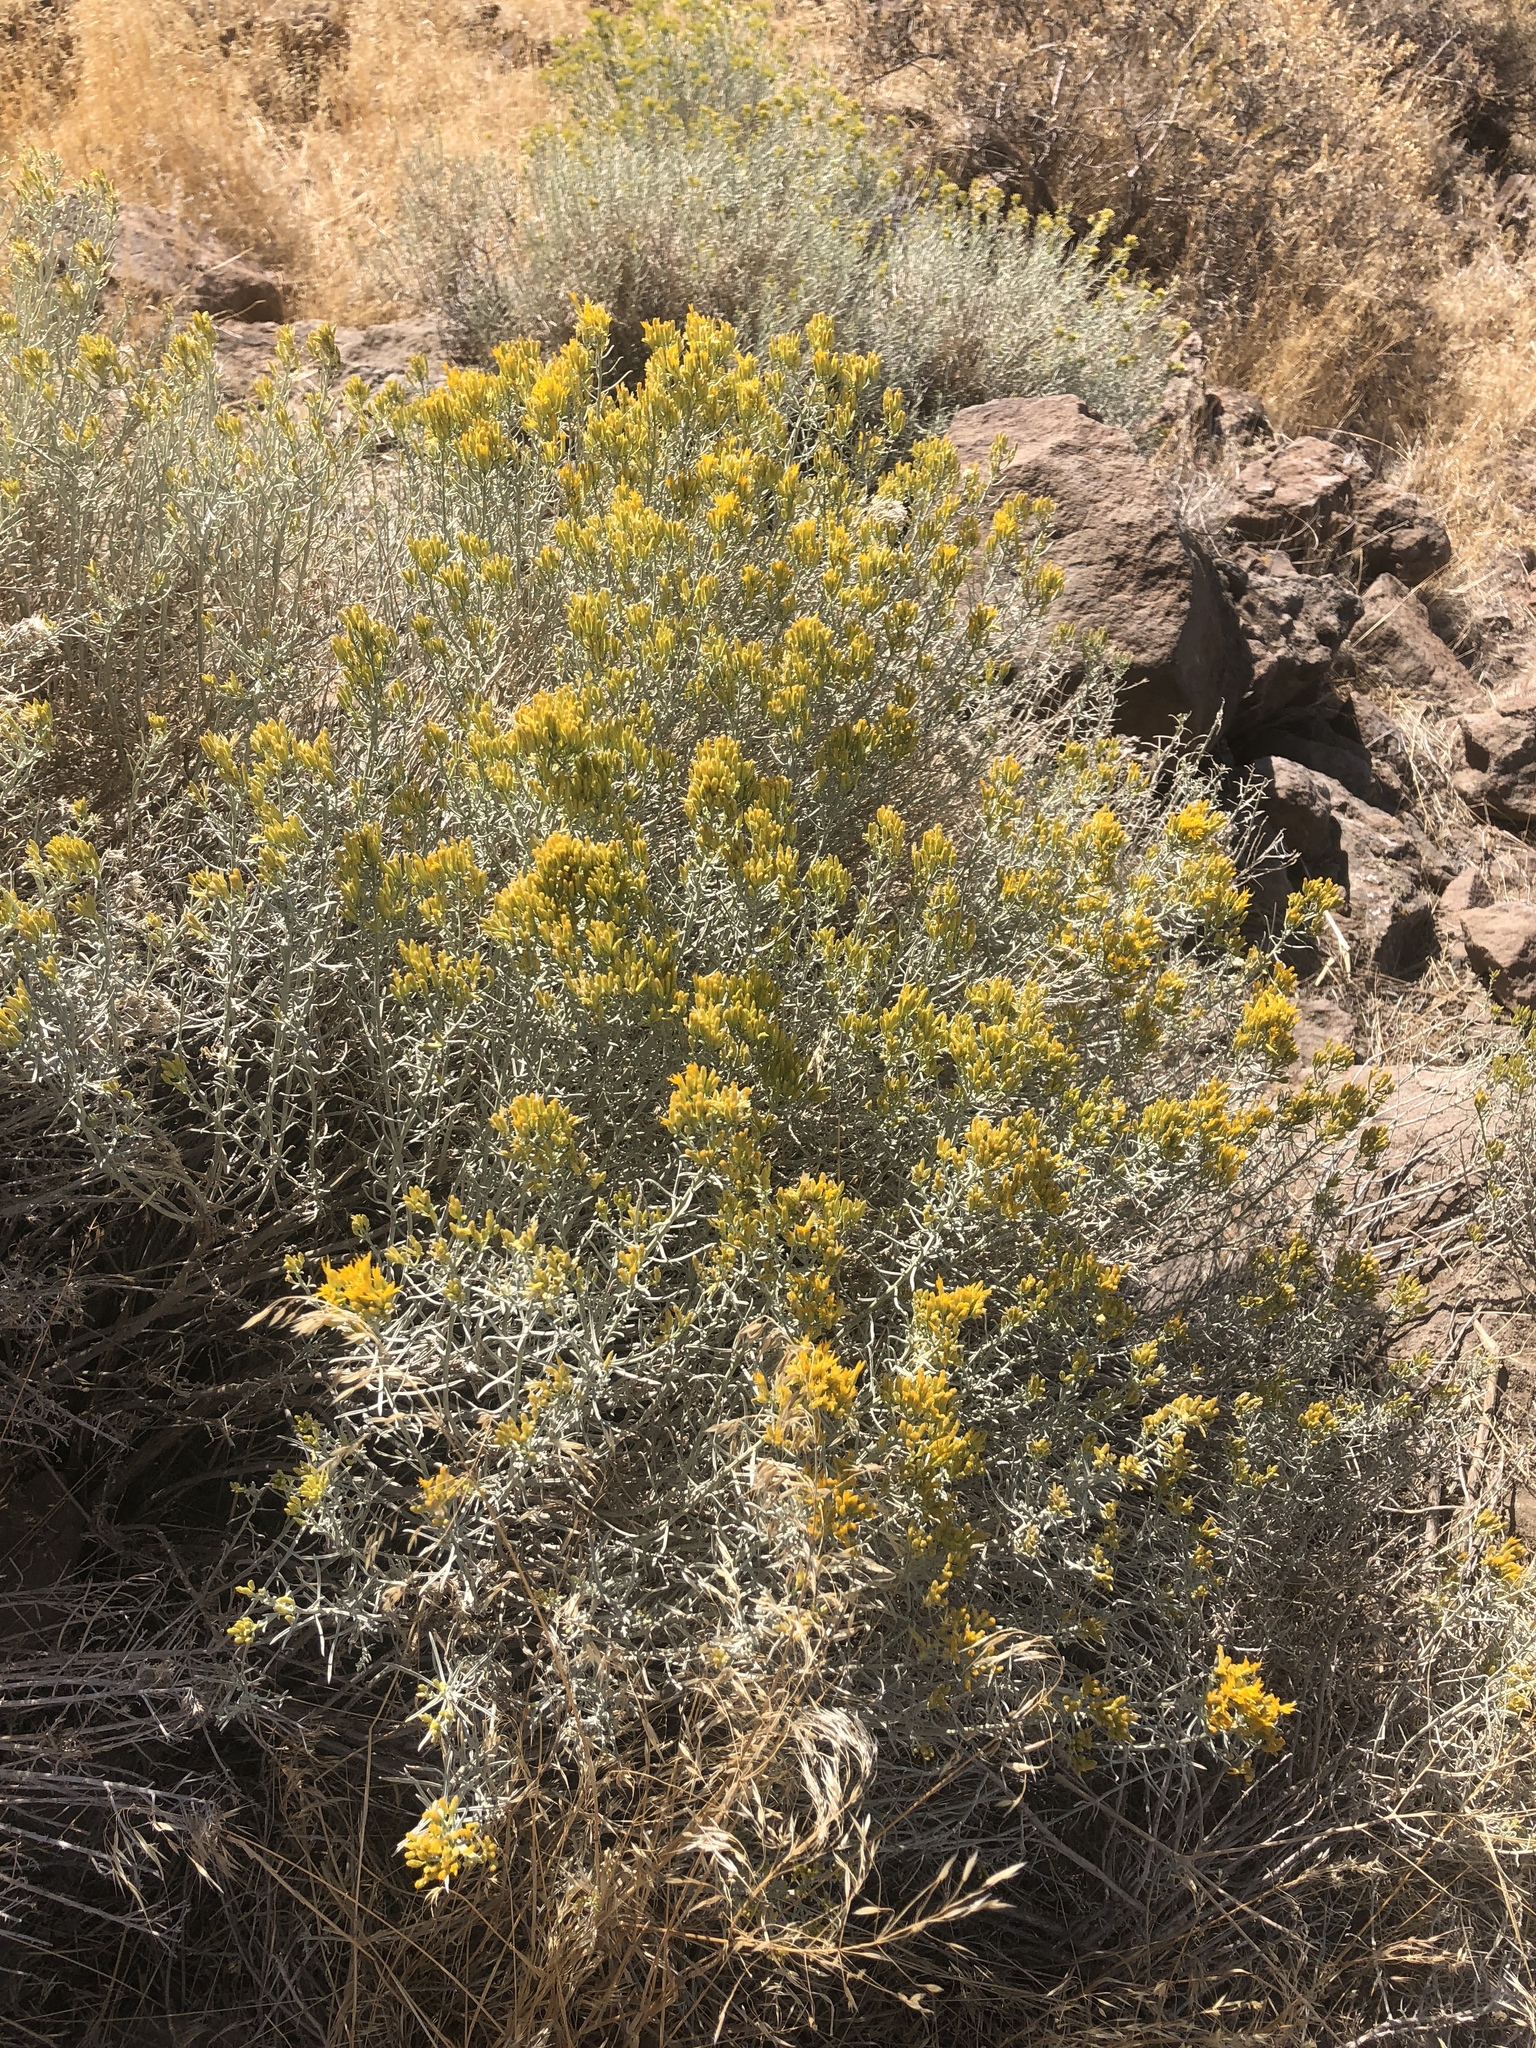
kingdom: Plantae
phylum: Tracheophyta
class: Magnoliopsida
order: Asterales
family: Asteraceae
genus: Ericameria
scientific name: Ericameria nauseosa
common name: Rubber rabbitbrush
